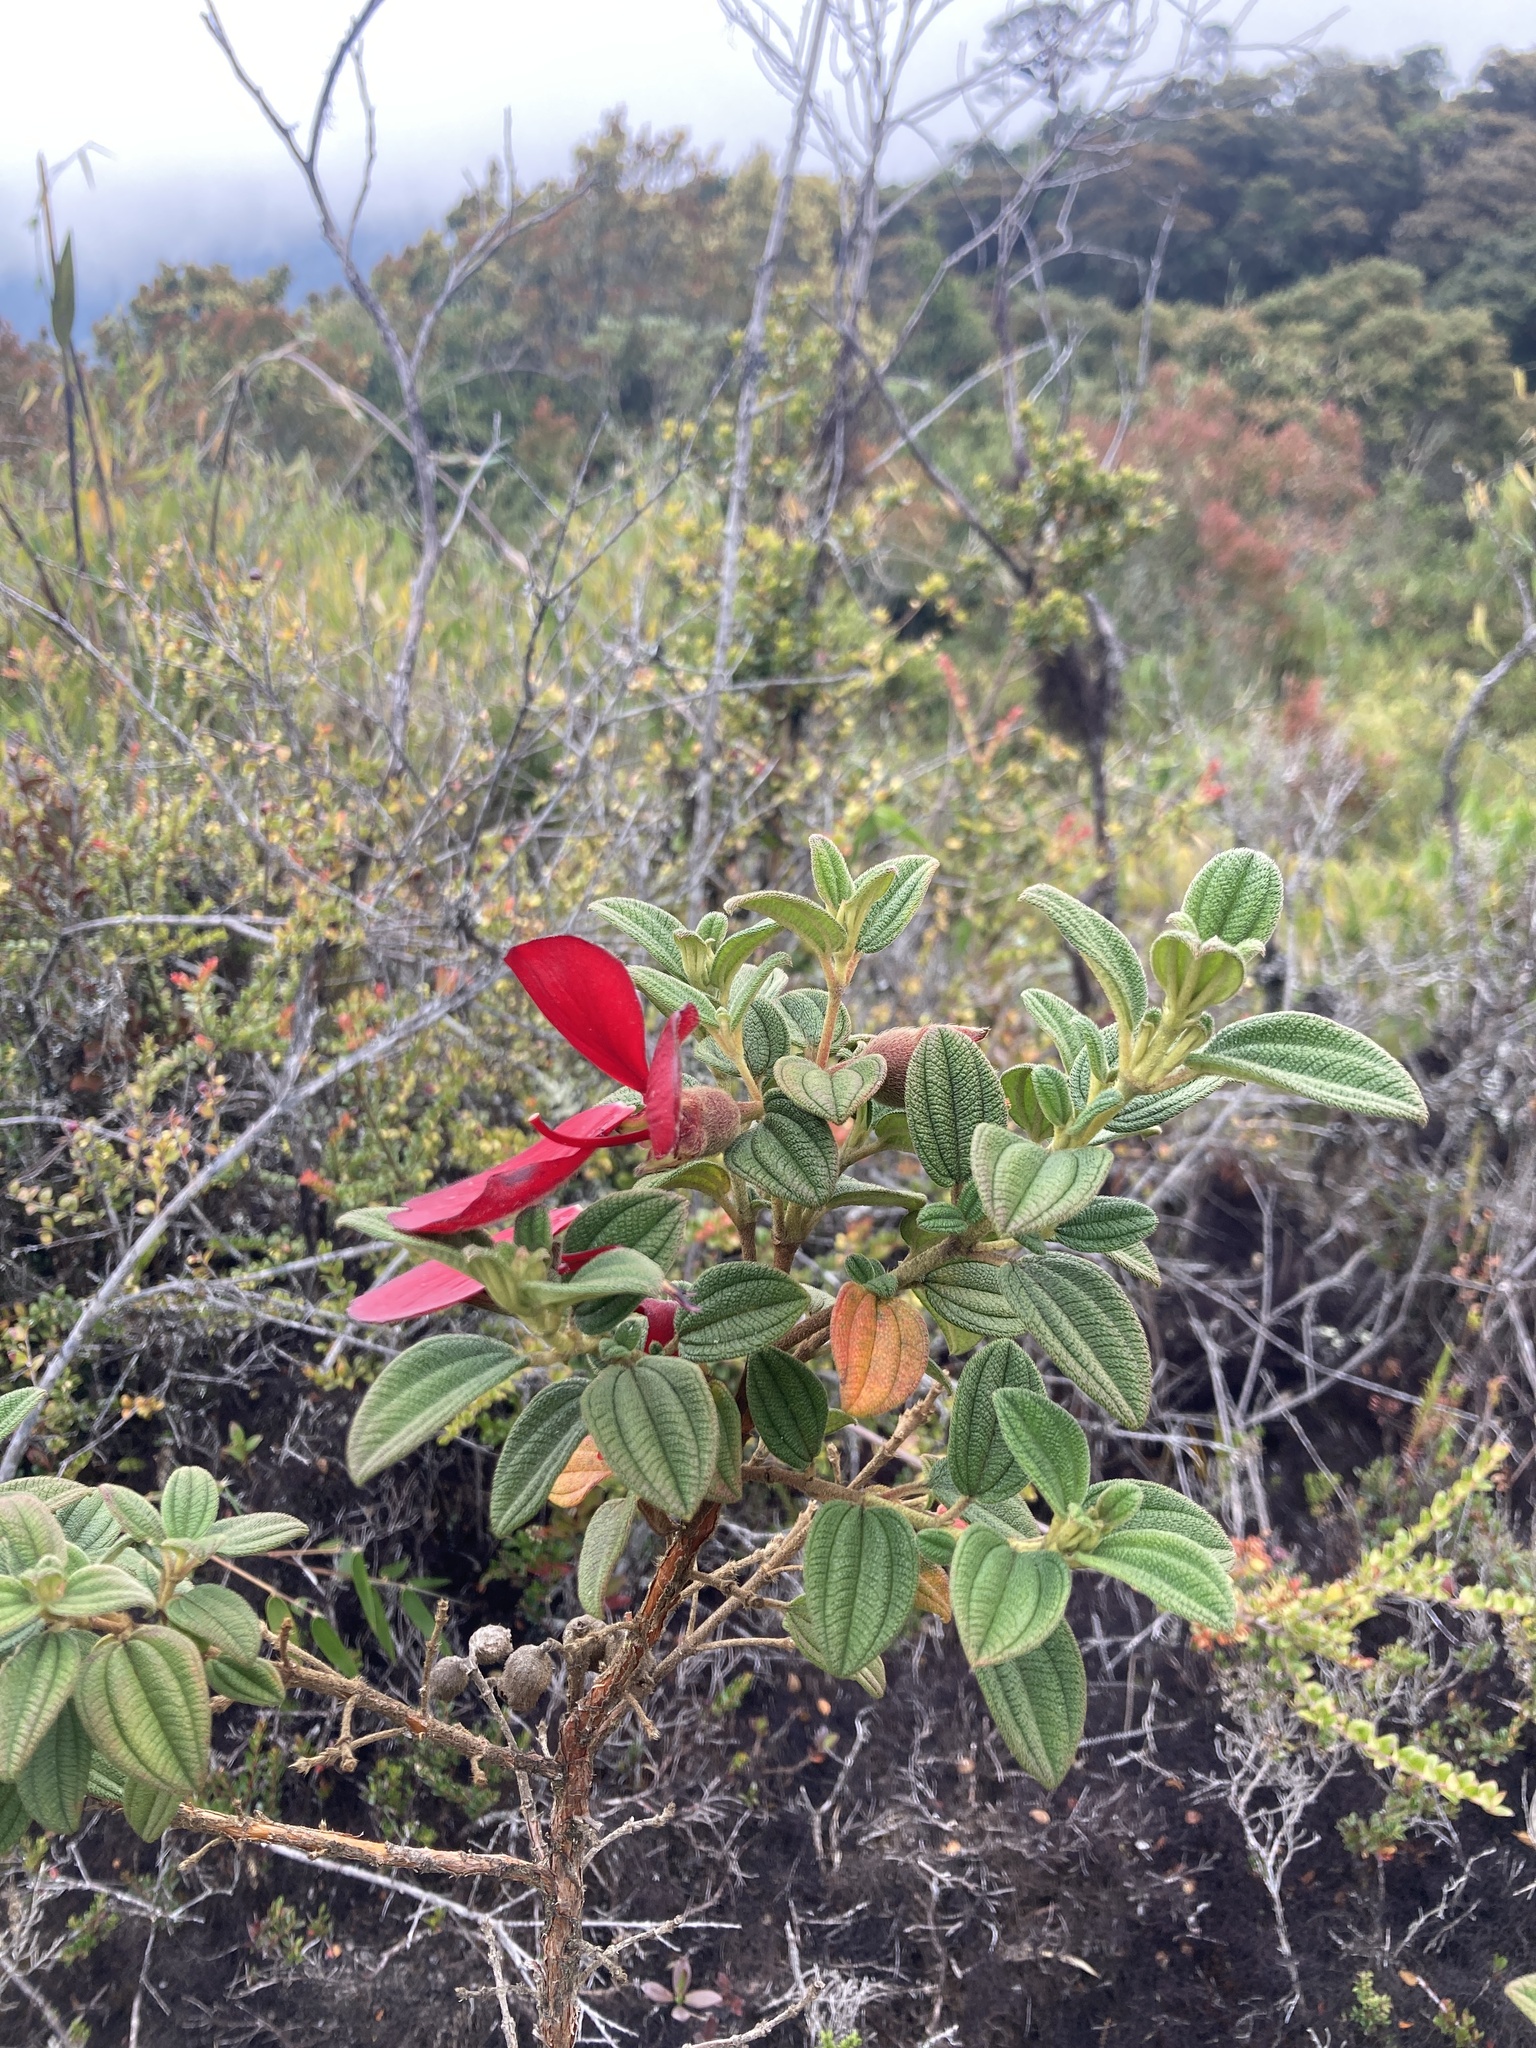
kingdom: Plantae
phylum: Tracheophyta
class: Magnoliopsida
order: Myrtales
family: Melastomataceae
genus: Chaetogastra
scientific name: Chaetogastra grossa
